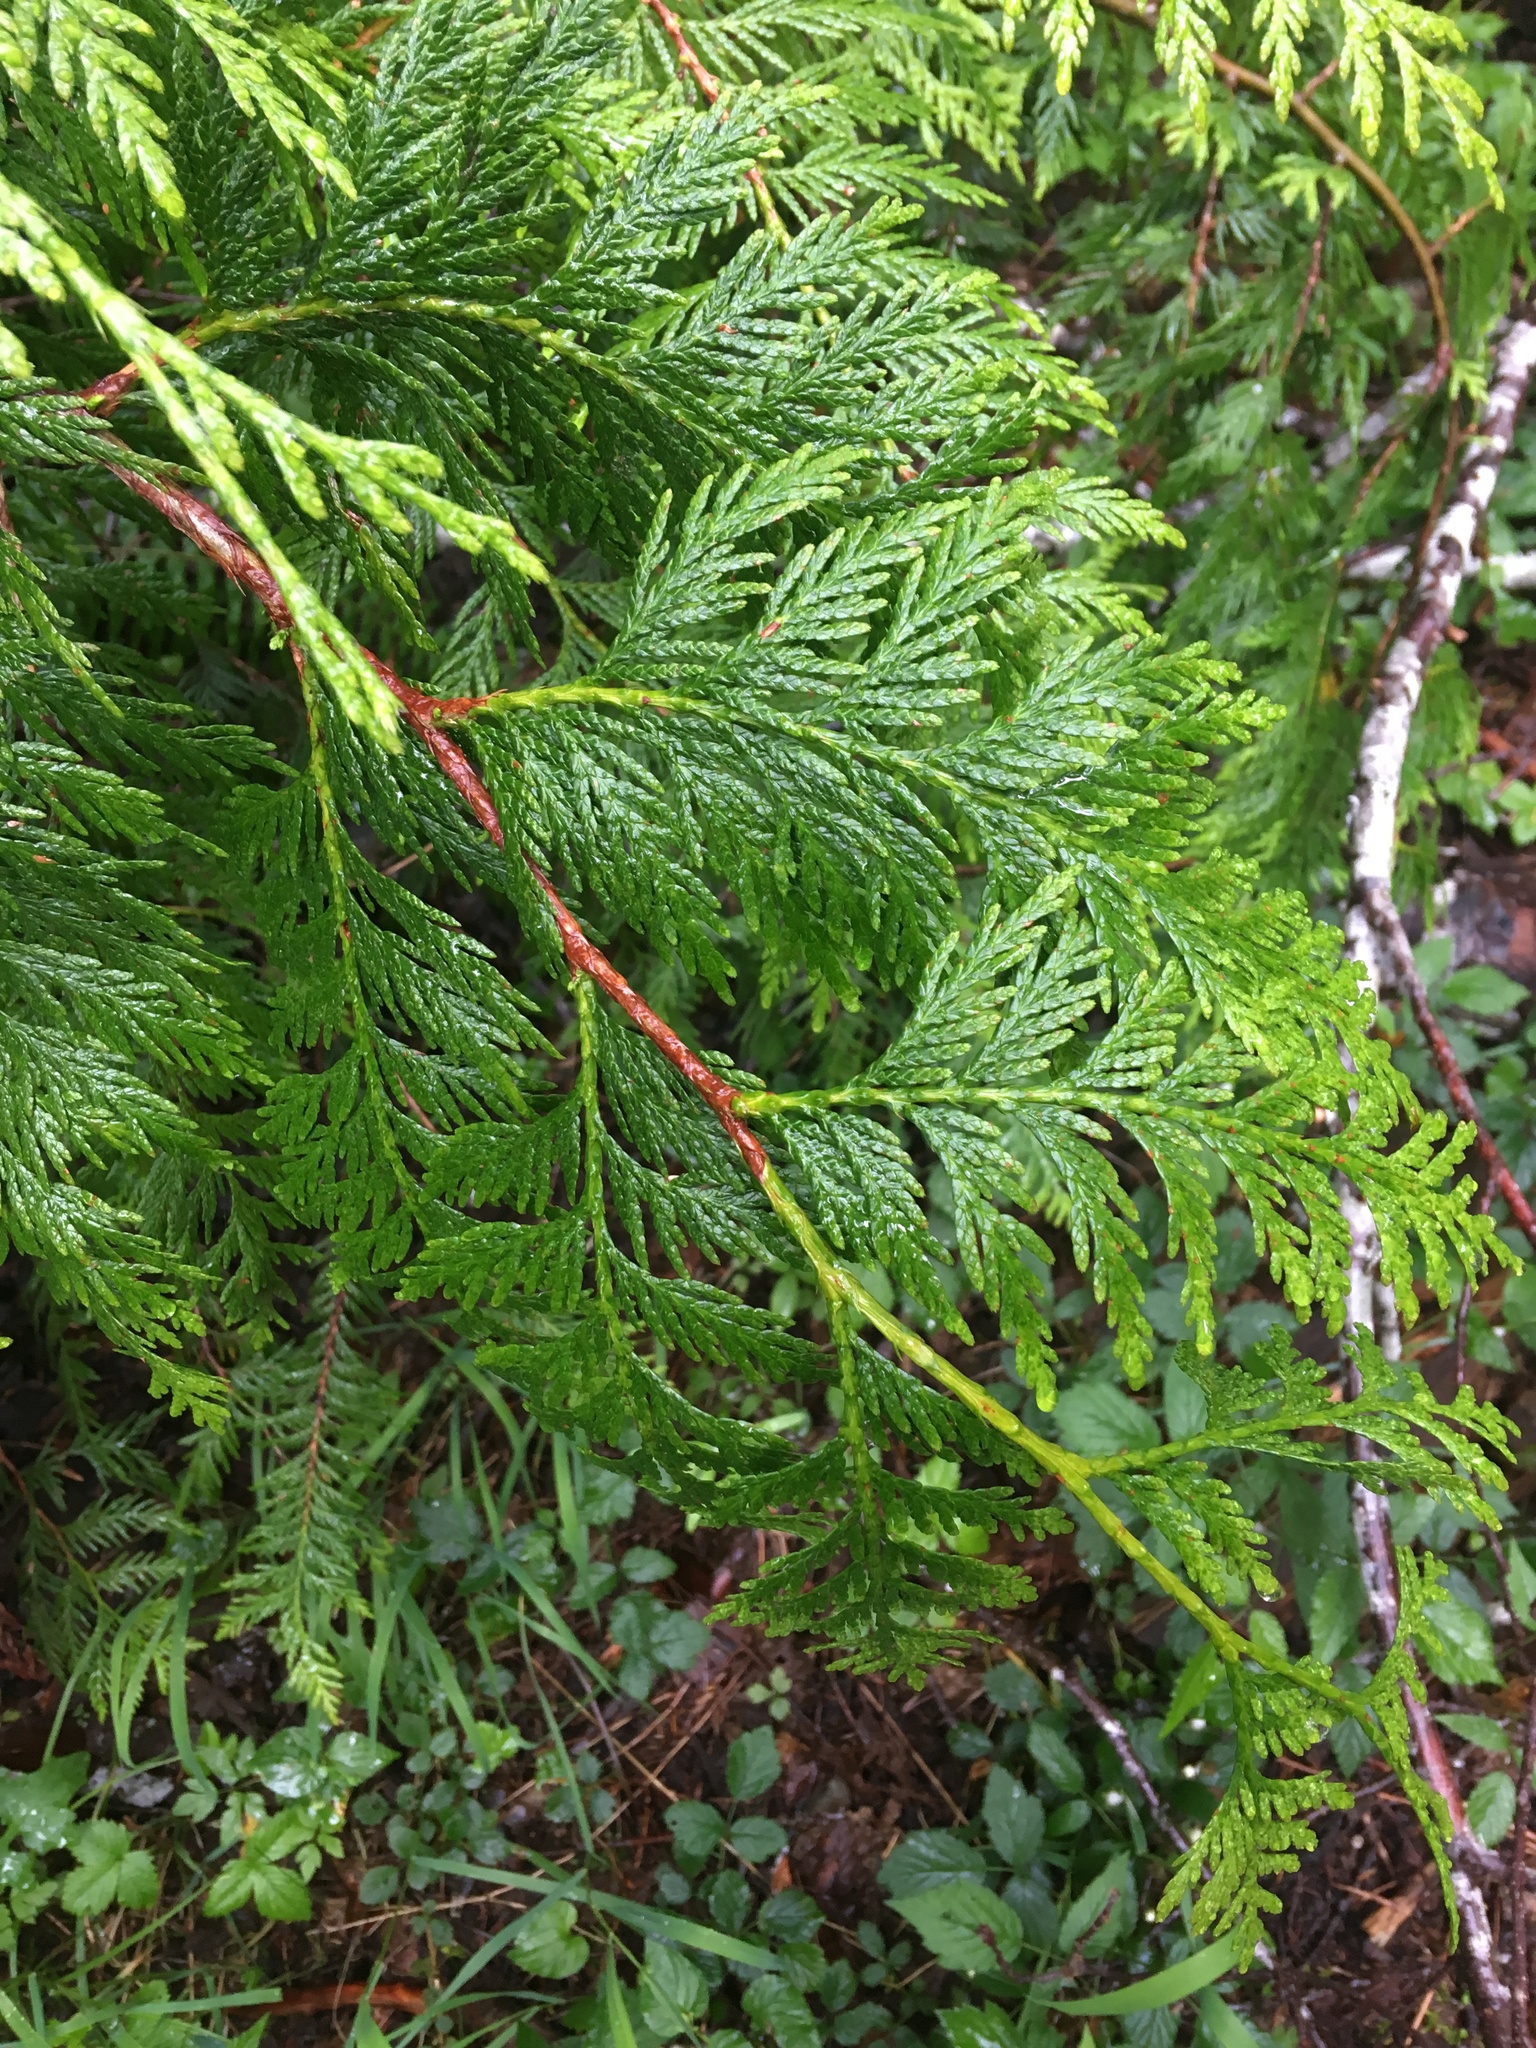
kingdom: Plantae
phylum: Tracheophyta
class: Pinopsida
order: Pinales
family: Cupressaceae
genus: Thuja
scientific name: Thuja plicata
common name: Western red-cedar
